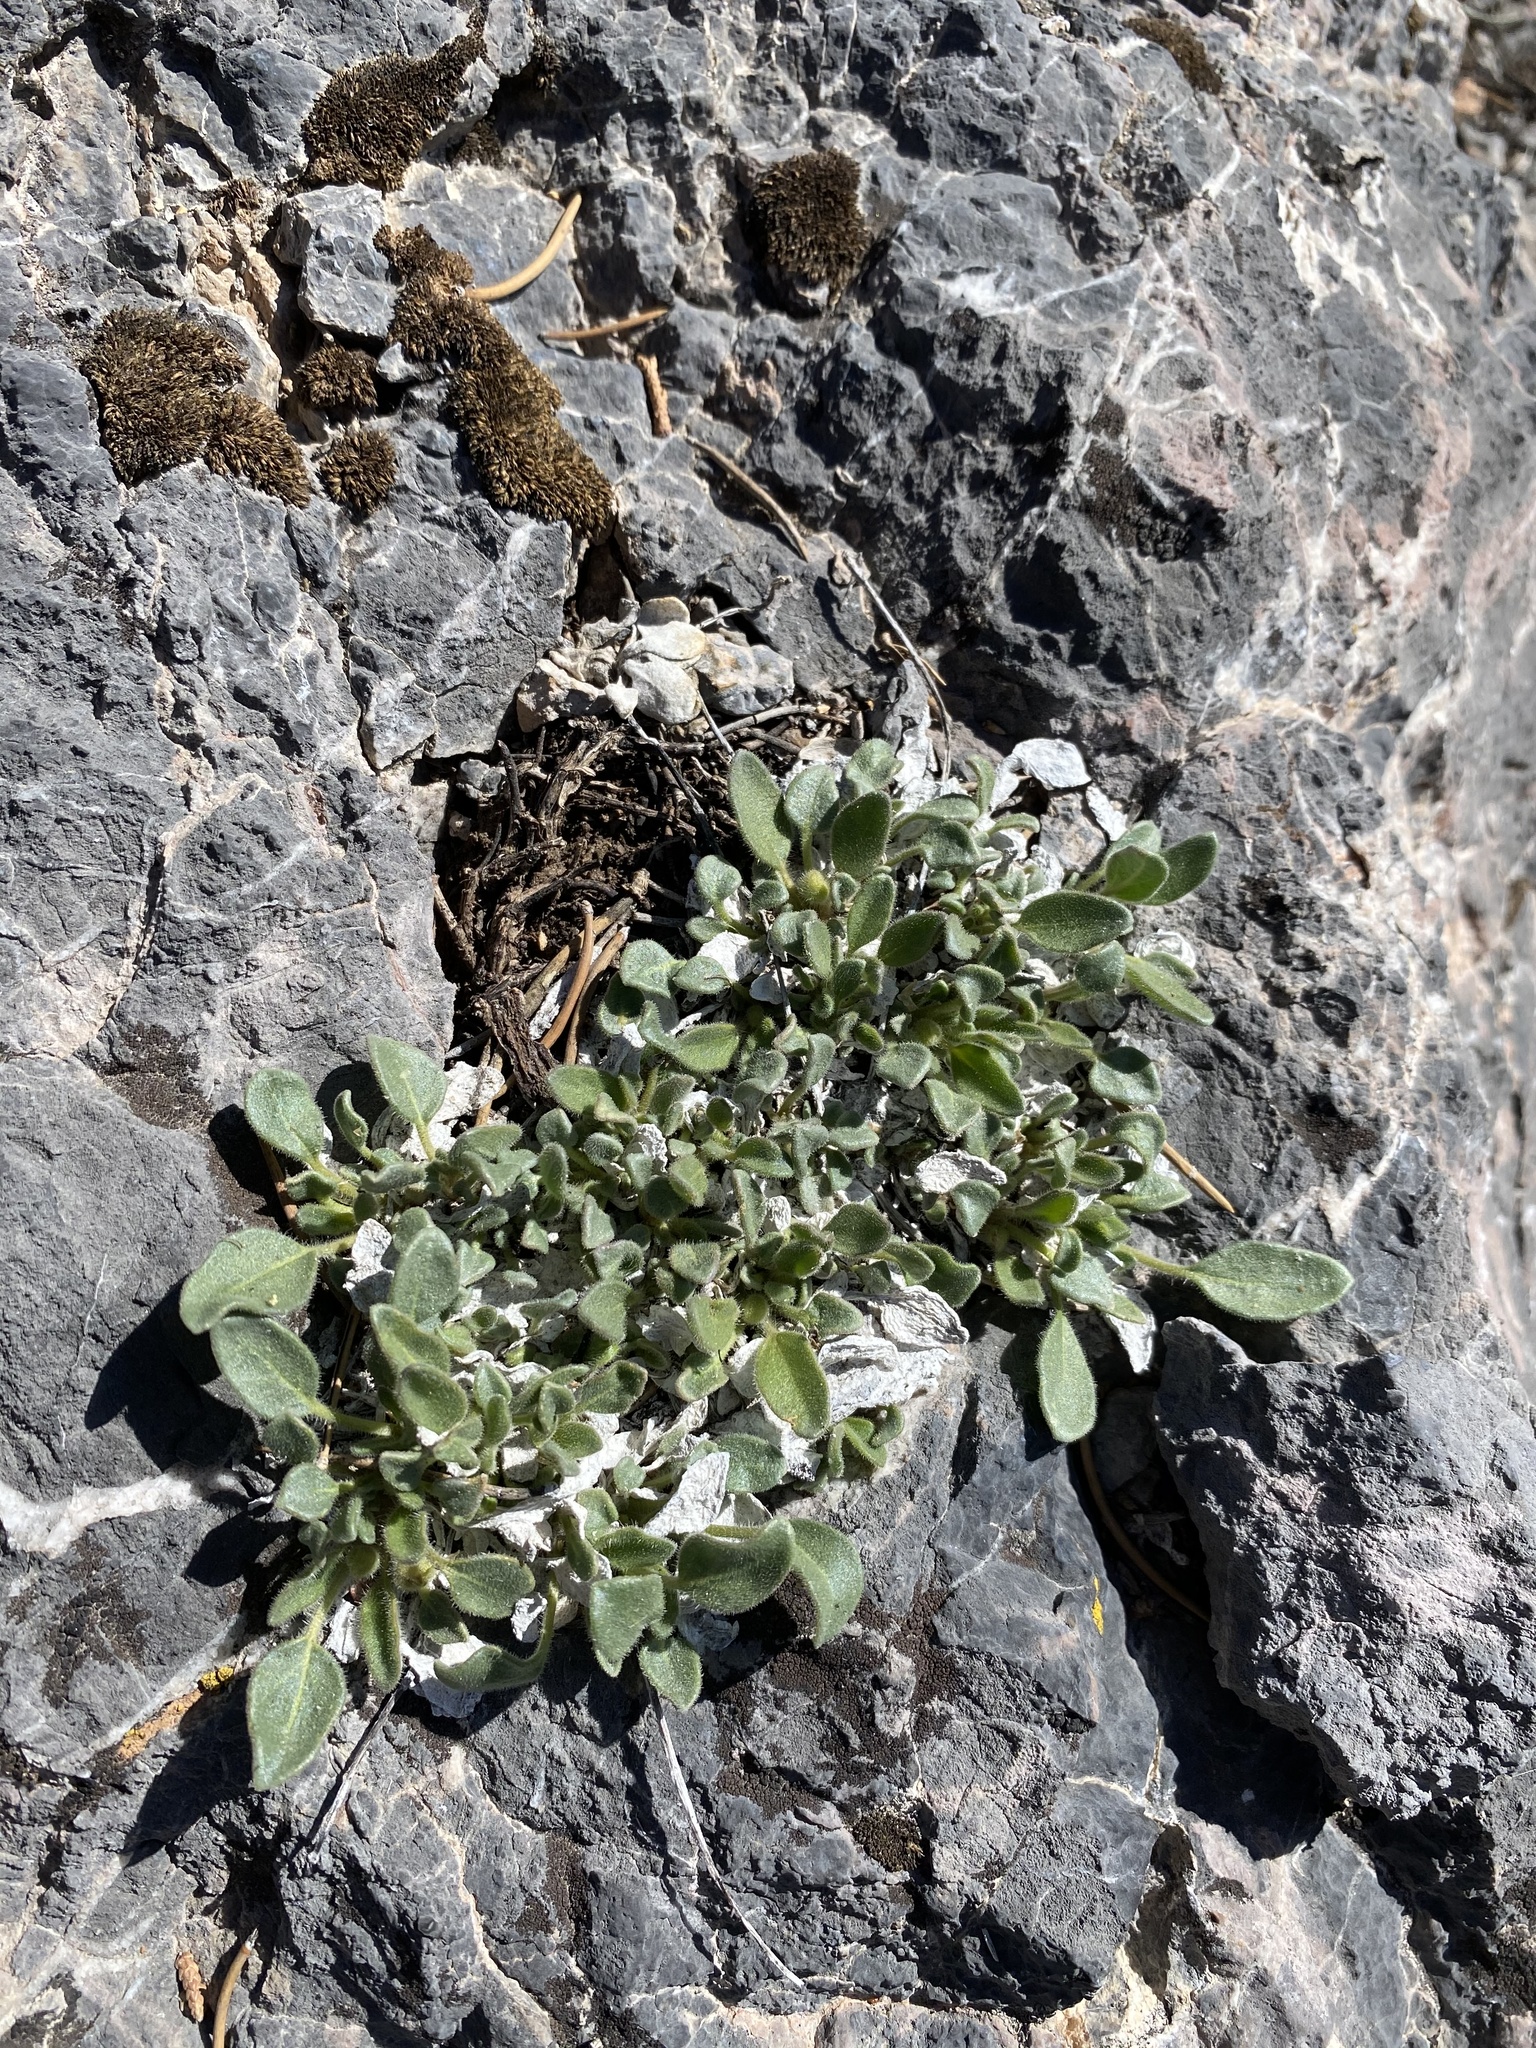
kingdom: Plantae
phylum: Tracheophyta
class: Magnoliopsida
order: Caryophyllales
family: Nyctaginaceae
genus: Abronia
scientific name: Abronia nana
